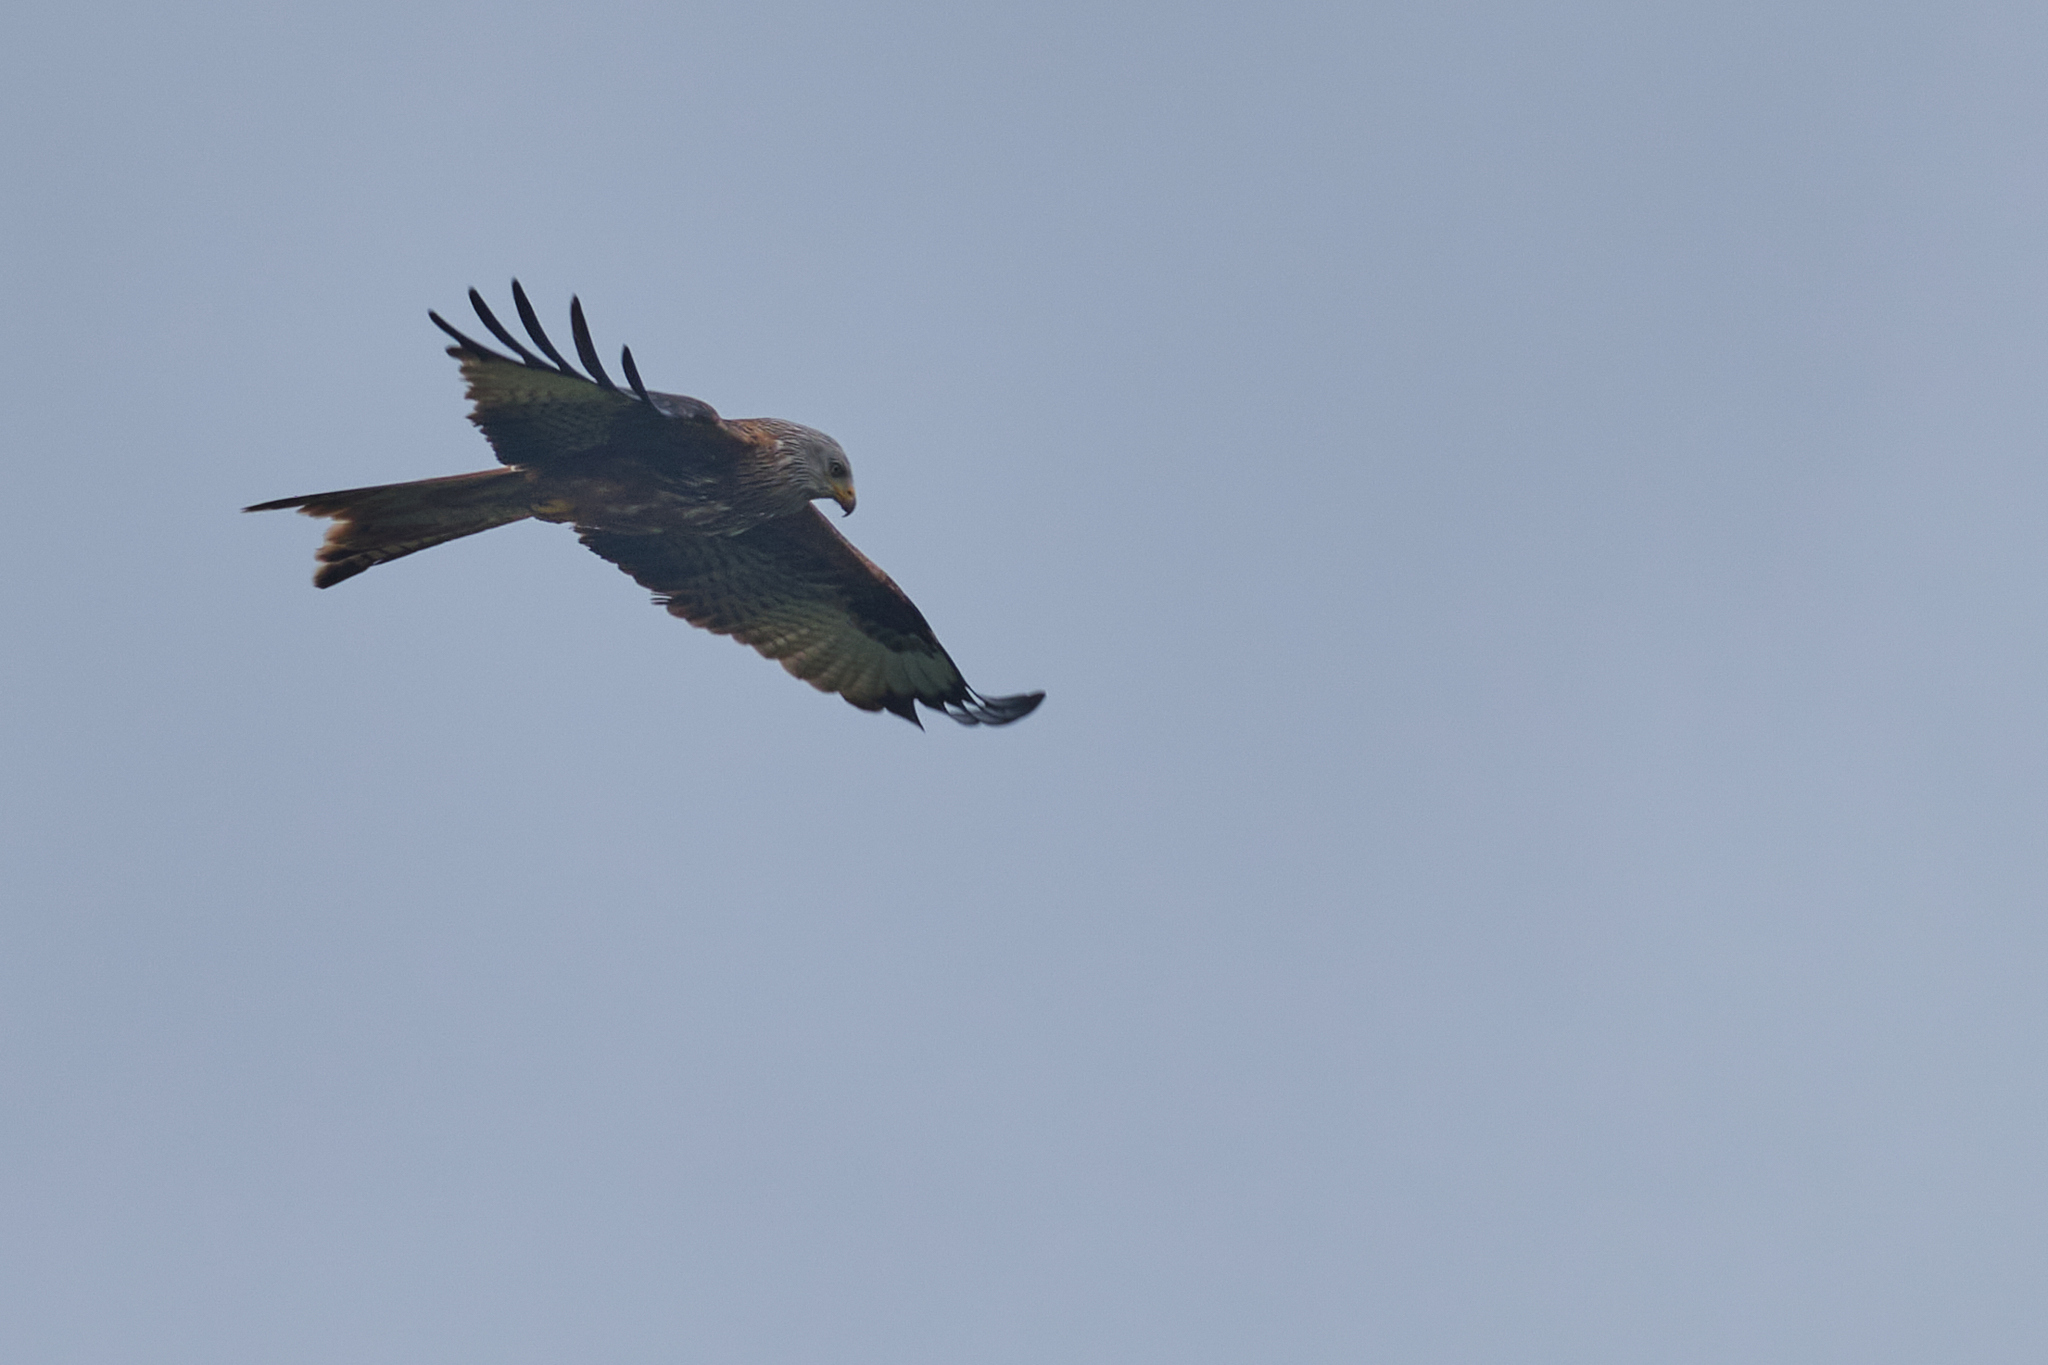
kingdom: Animalia
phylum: Chordata
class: Aves
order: Accipitriformes
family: Accipitridae
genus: Milvus
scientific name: Milvus milvus
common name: Red kite
